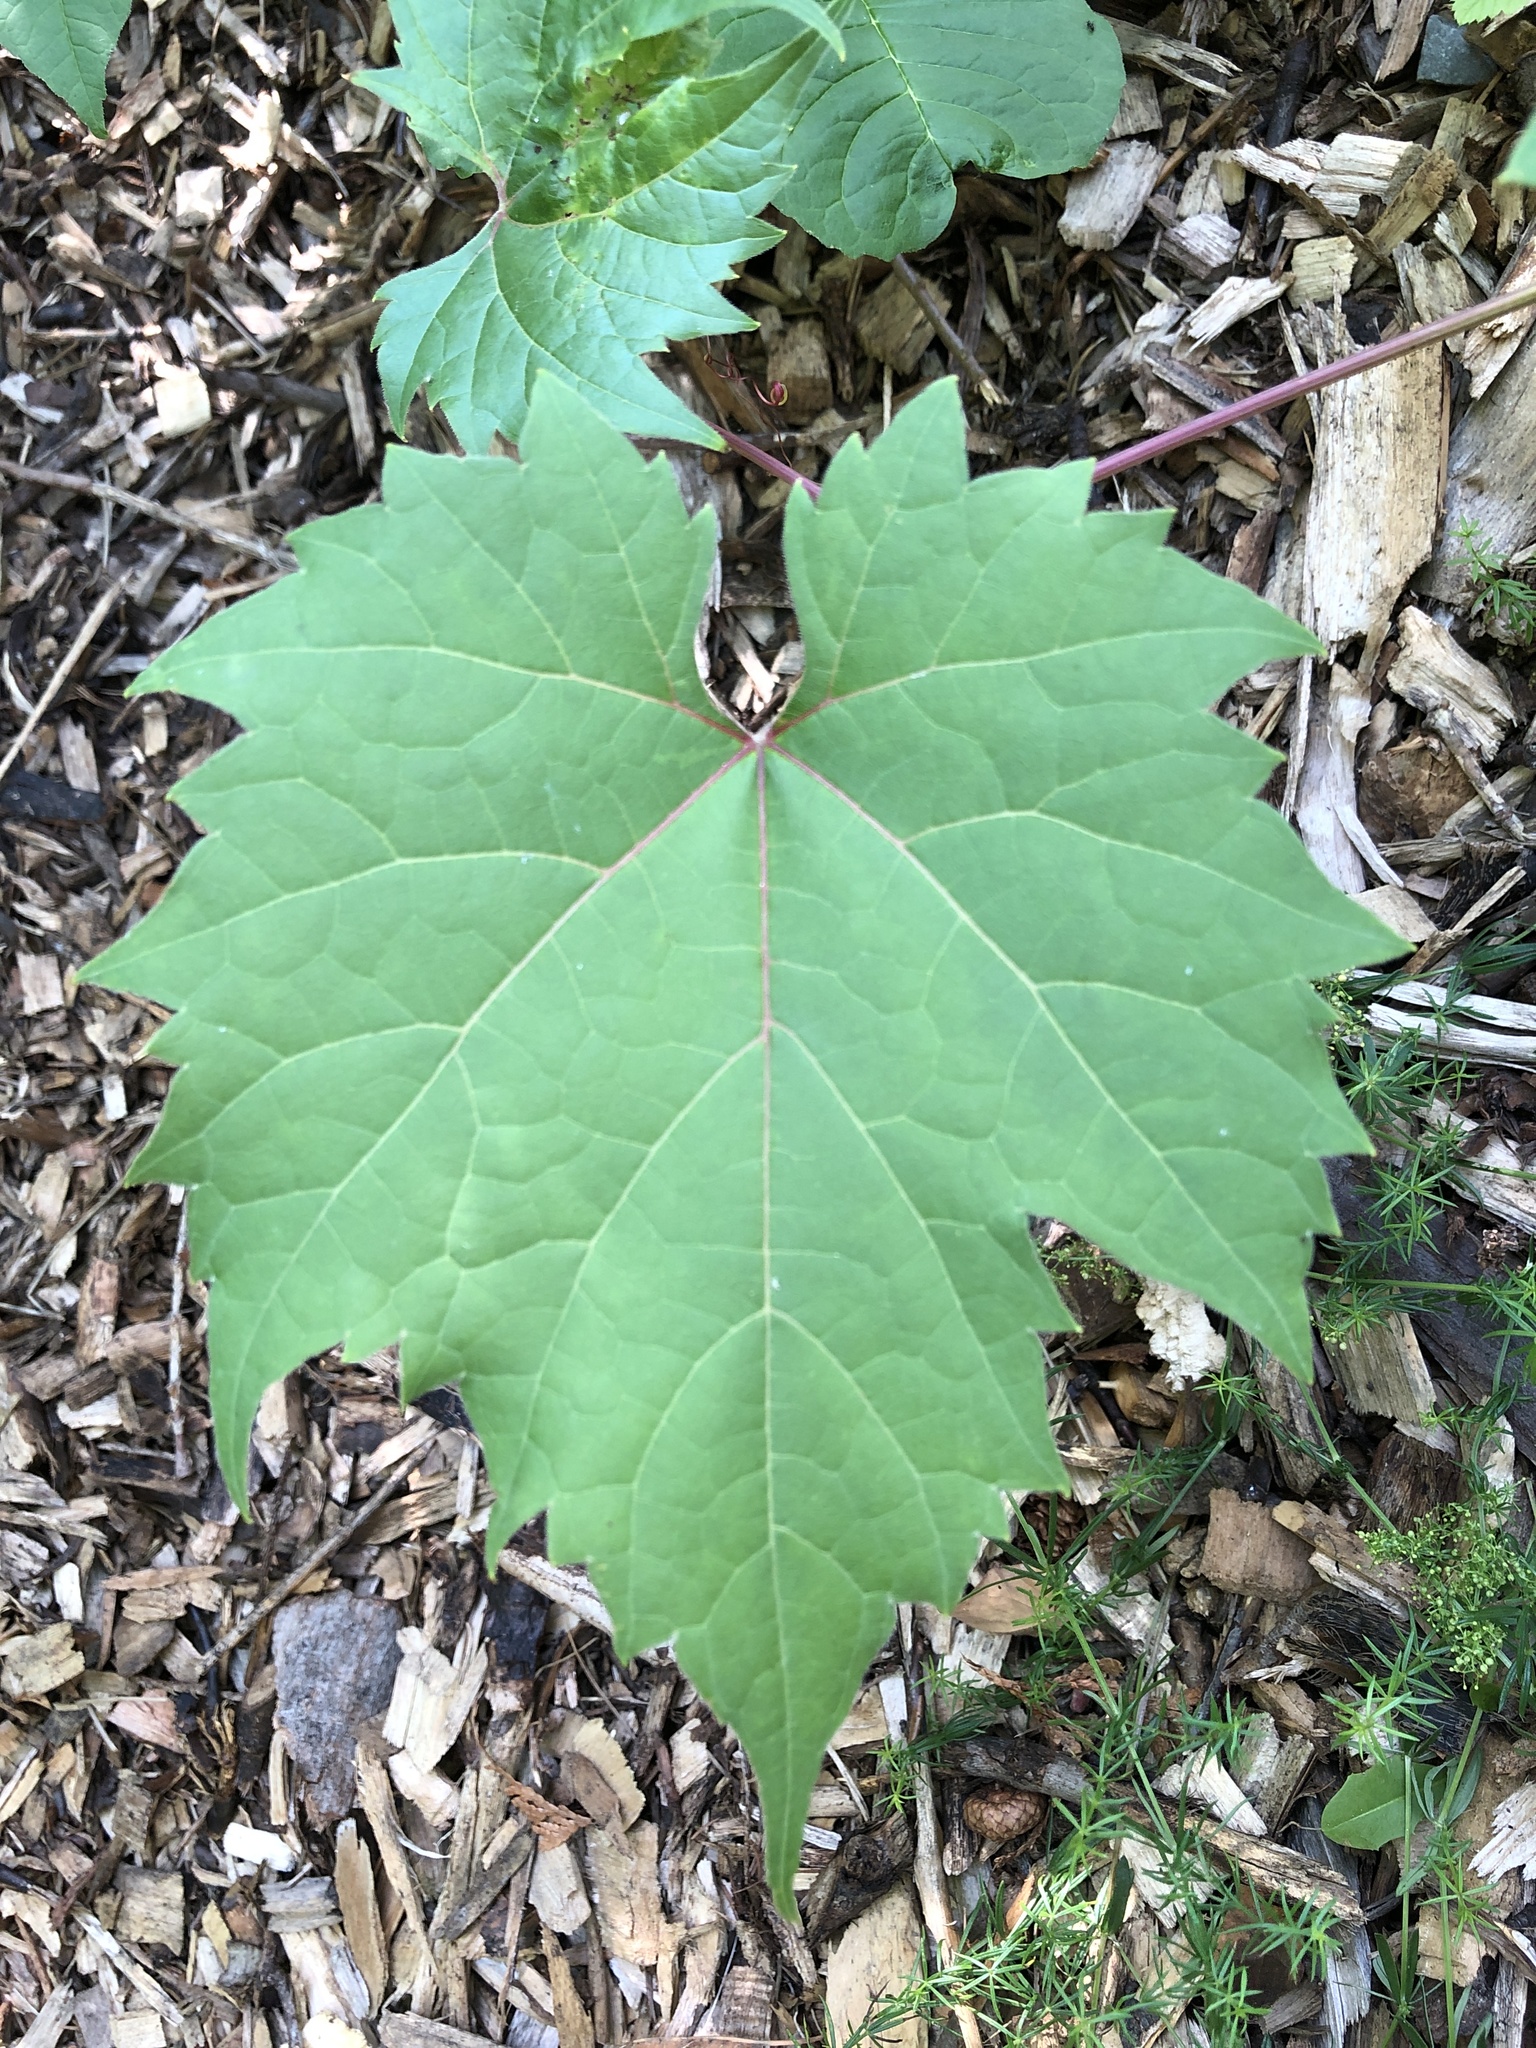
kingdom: Plantae
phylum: Tracheophyta
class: Magnoliopsida
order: Vitales
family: Vitaceae
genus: Vitis
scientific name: Vitis riparia
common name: Frost grape
